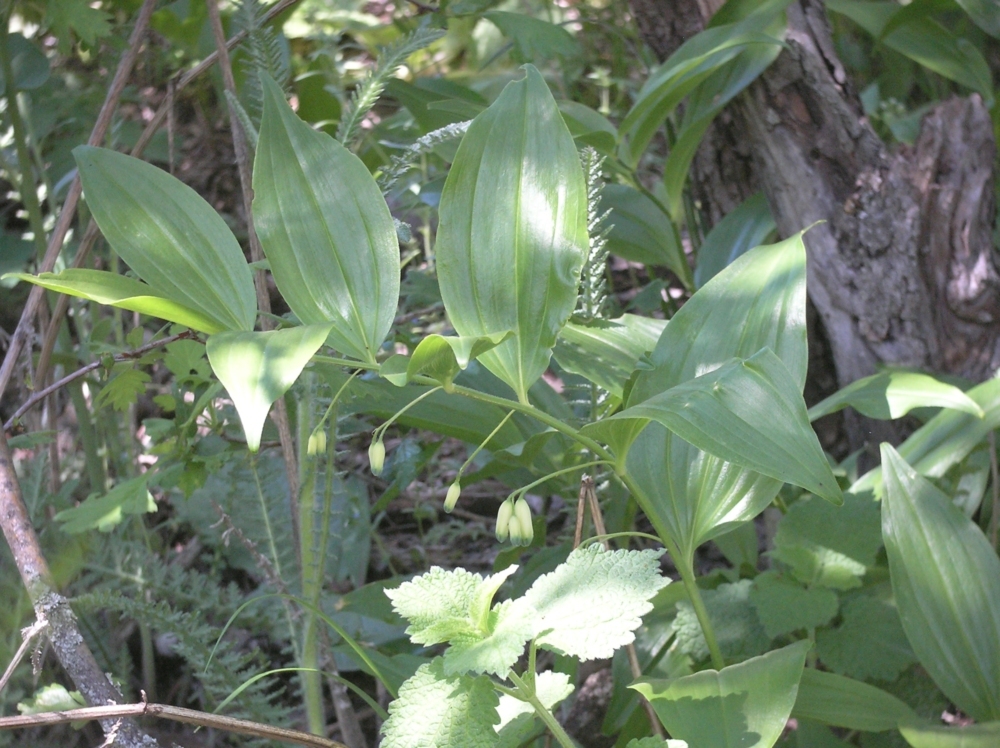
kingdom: Plantae
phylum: Tracheophyta
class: Liliopsida
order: Asparagales
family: Asparagaceae
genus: Polygonatum
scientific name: Polygonatum multiflorum
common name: Solomon's-seal
